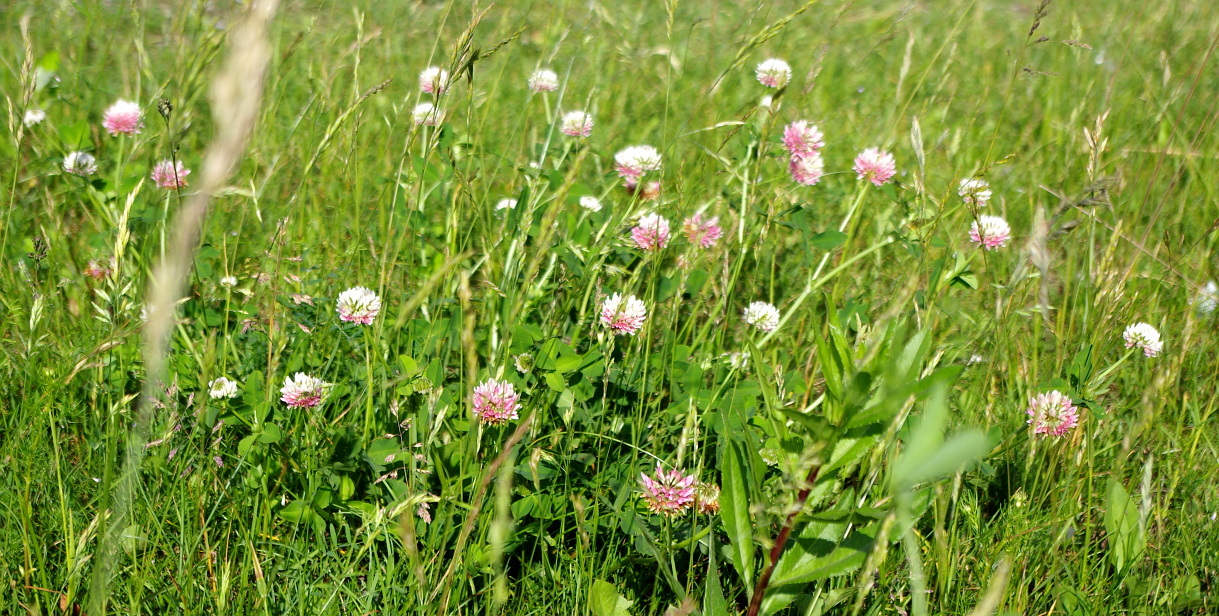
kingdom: Plantae
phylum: Tracheophyta
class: Magnoliopsida
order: Fabales
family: Fabaceae
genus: Trifolium
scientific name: Trifolium hybridum
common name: Alsike clover
